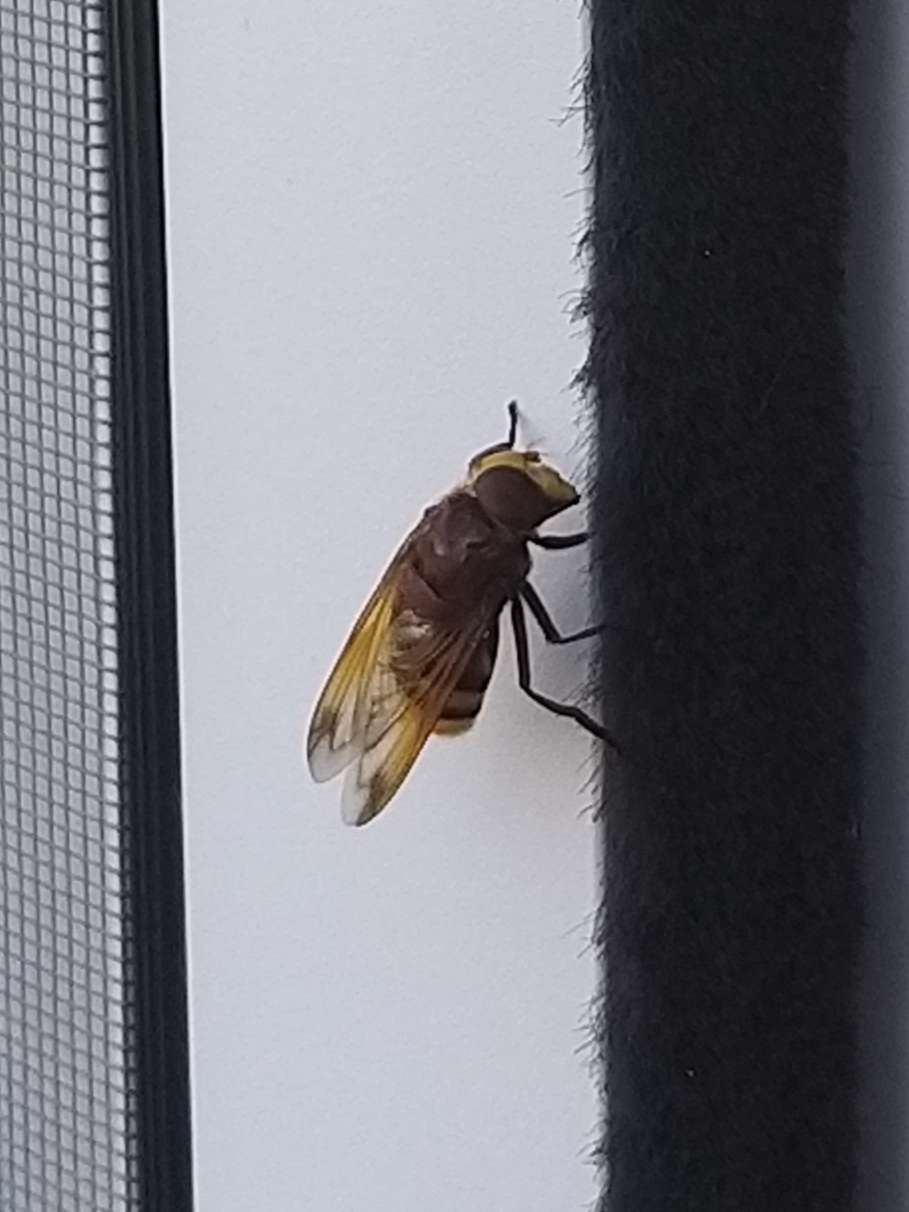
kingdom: Animalia
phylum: Arthropoda
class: Insecta
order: Diptera
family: Syrphidae
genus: Volucella
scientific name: Volucella zonaria
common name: Hornet hoverfly
